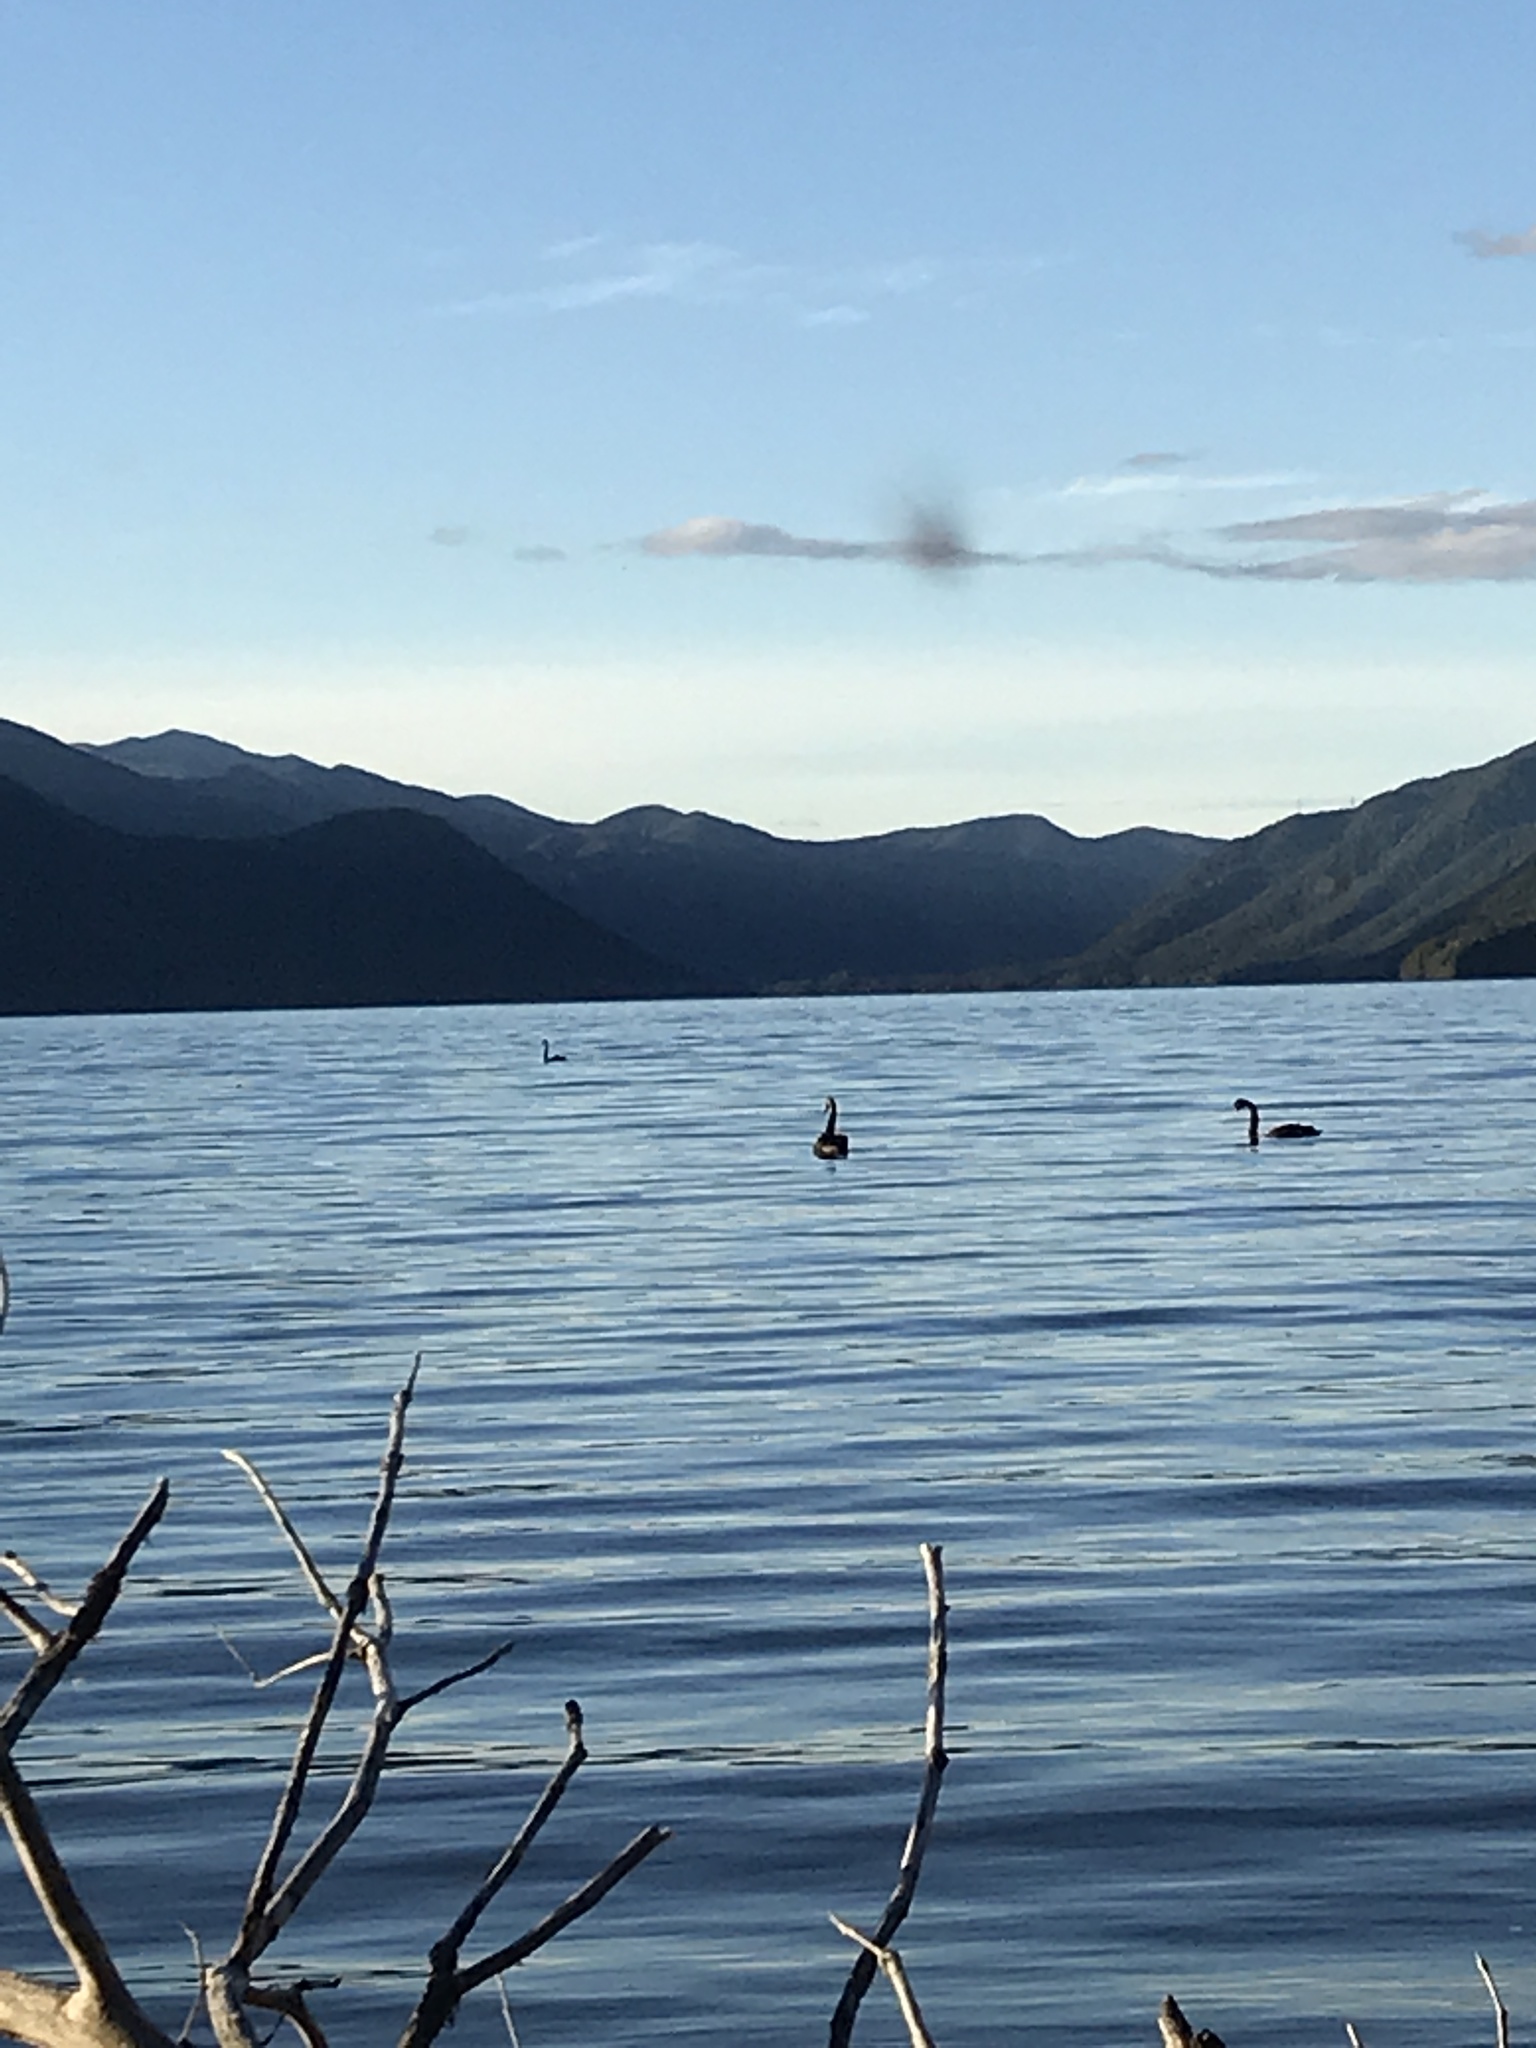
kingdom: Animalia
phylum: Chordata
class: Aves
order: Anseriformes
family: Anatidae
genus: Cygnus
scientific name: Cygnus atratus
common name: Black swan
